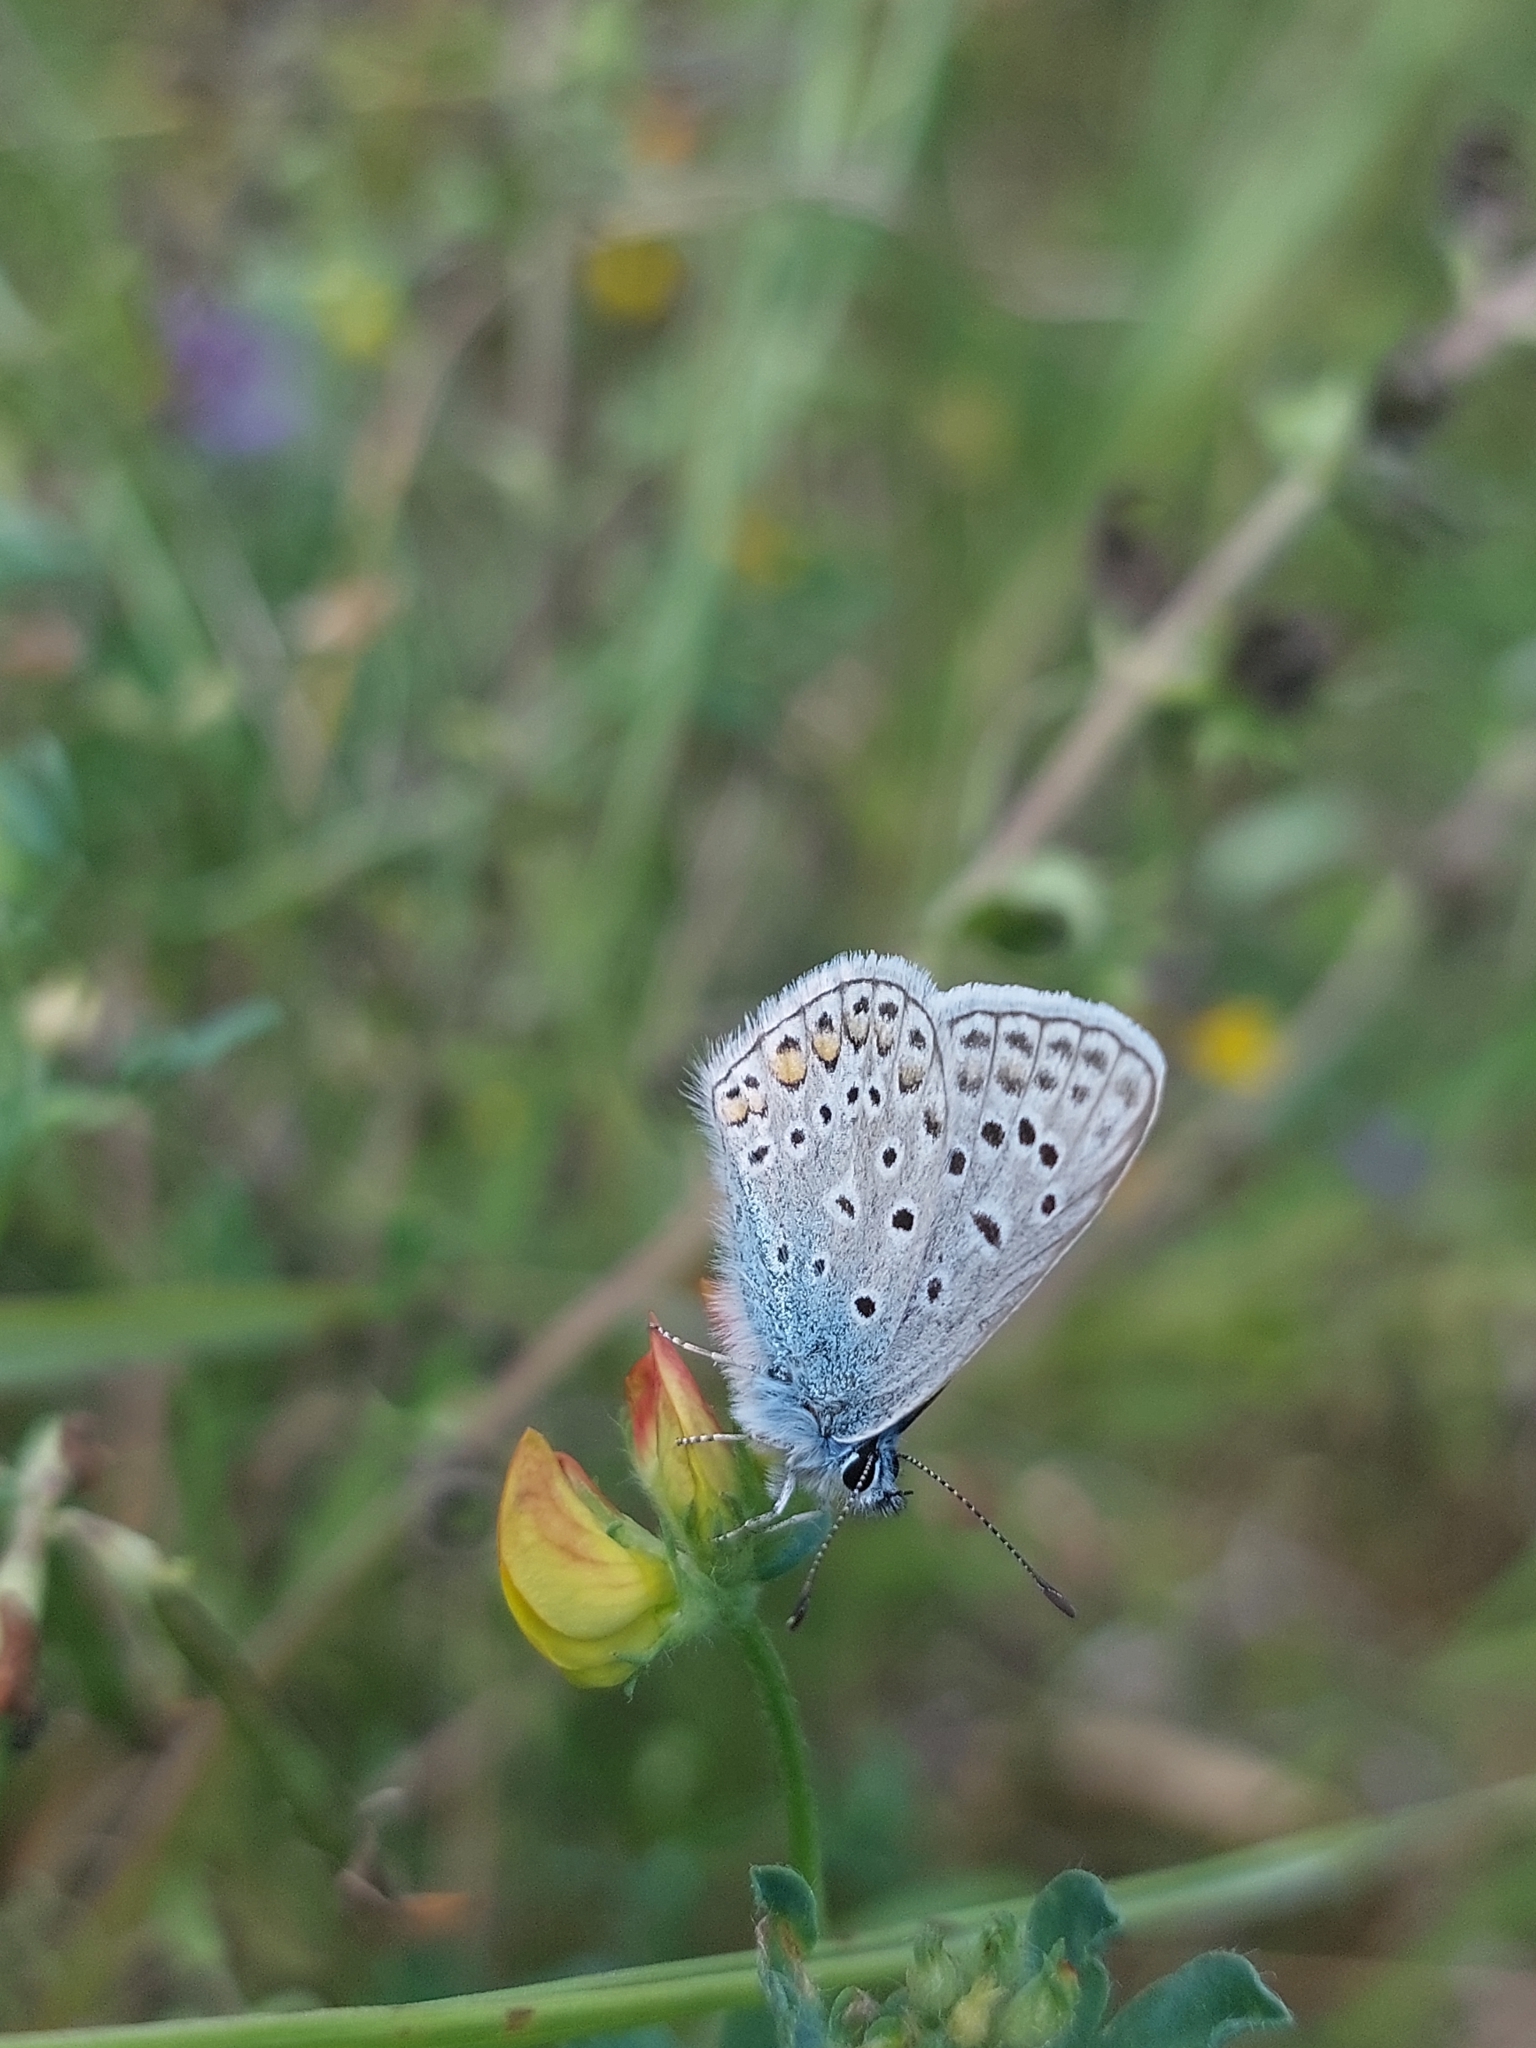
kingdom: Animalia
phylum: Arthropoda
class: Insecta
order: Lepidoptera
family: Lycaenidae
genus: Polyommatus
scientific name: Polyommatus icarus
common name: Common blue
